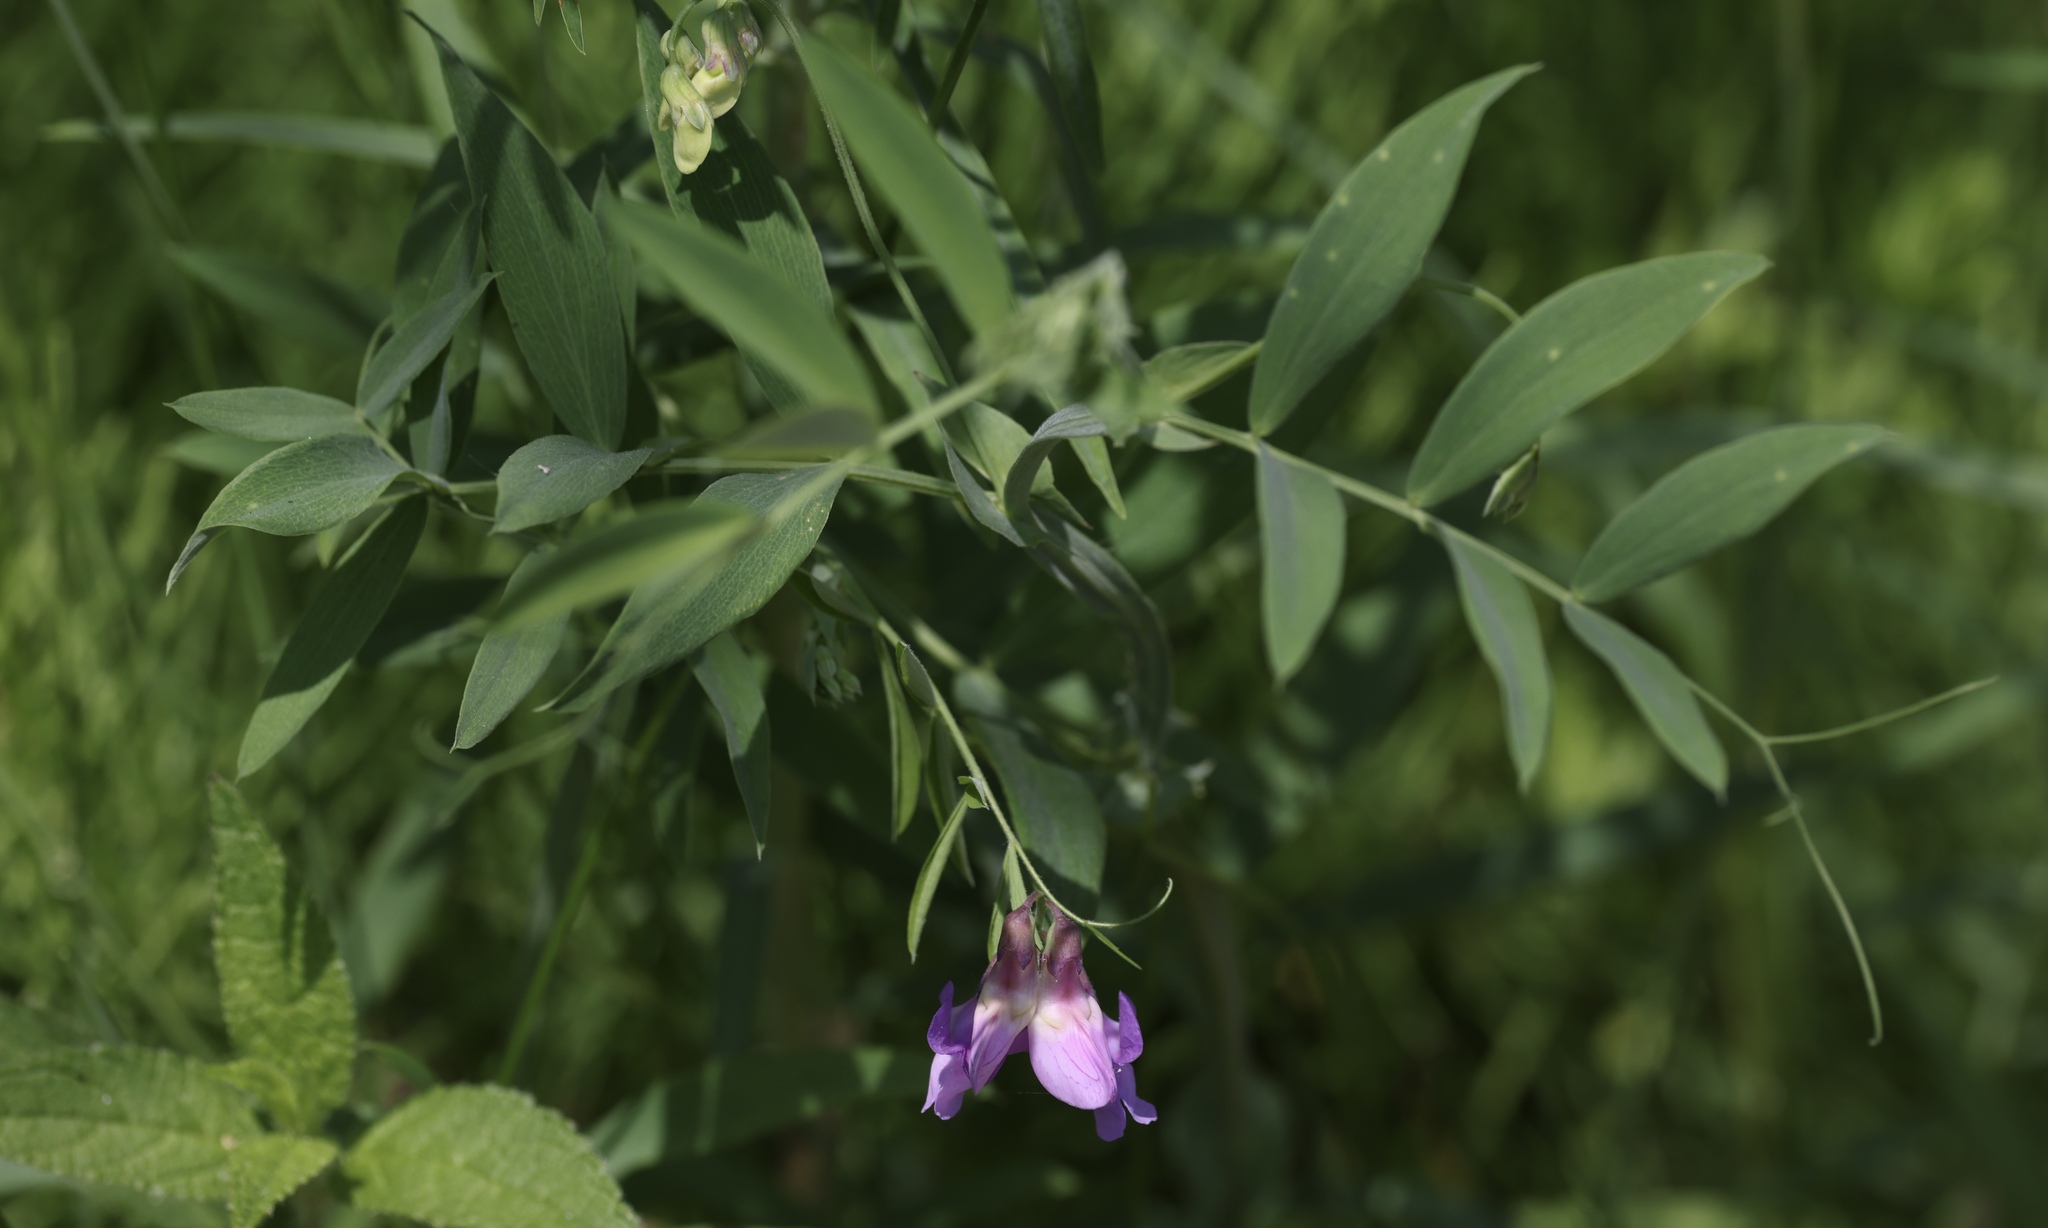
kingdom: Plantae
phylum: Tracheophyta
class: Magnoliopsida
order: Fabales
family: Fabaceae
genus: Lathyrus
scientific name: Lathyrus palustris
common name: Marsh pea
